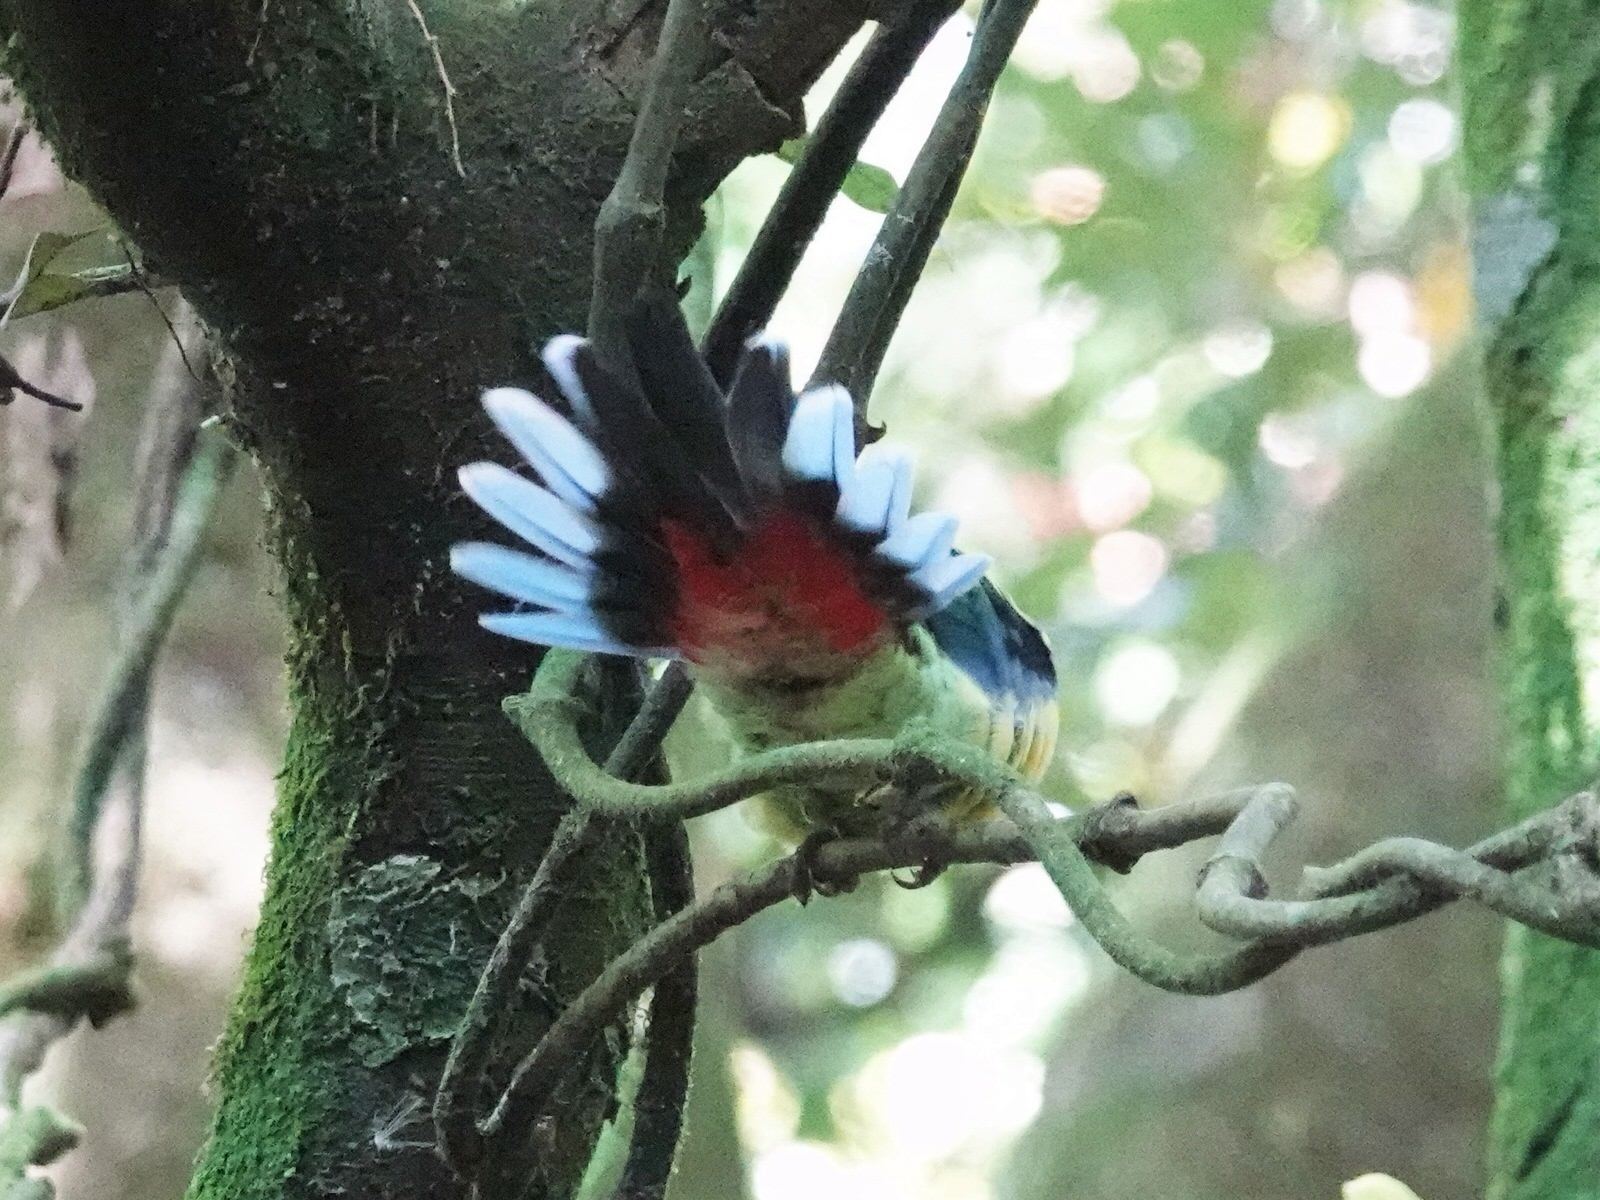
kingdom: Animalia
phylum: Chordata
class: Aves
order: Psittaciformes
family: Psittacidae
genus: Platycercus
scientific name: Platycercus eximius
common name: Eastern rosella
